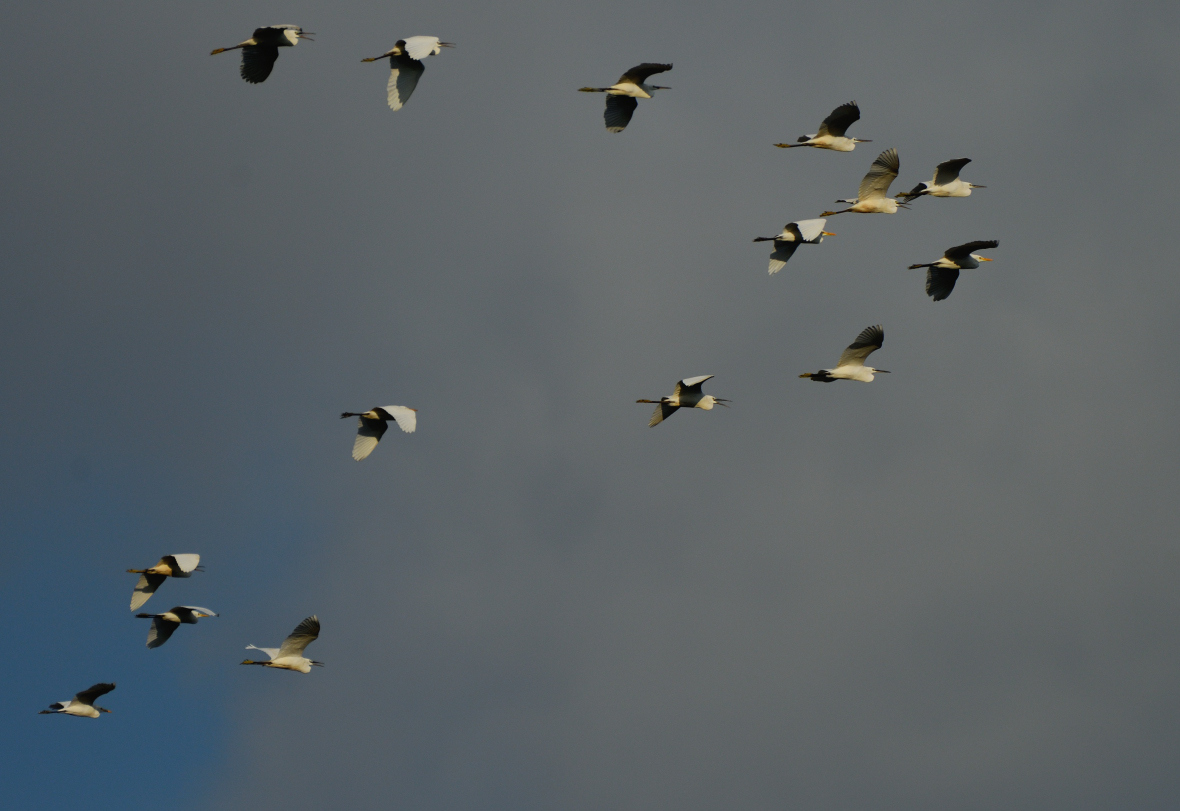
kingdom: Animalia
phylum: Chordata
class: Aves
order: Pelecaniformes
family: Ardeidae
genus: Bubulcus
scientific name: Bubulcus coromandus
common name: Eastern cattle egret
